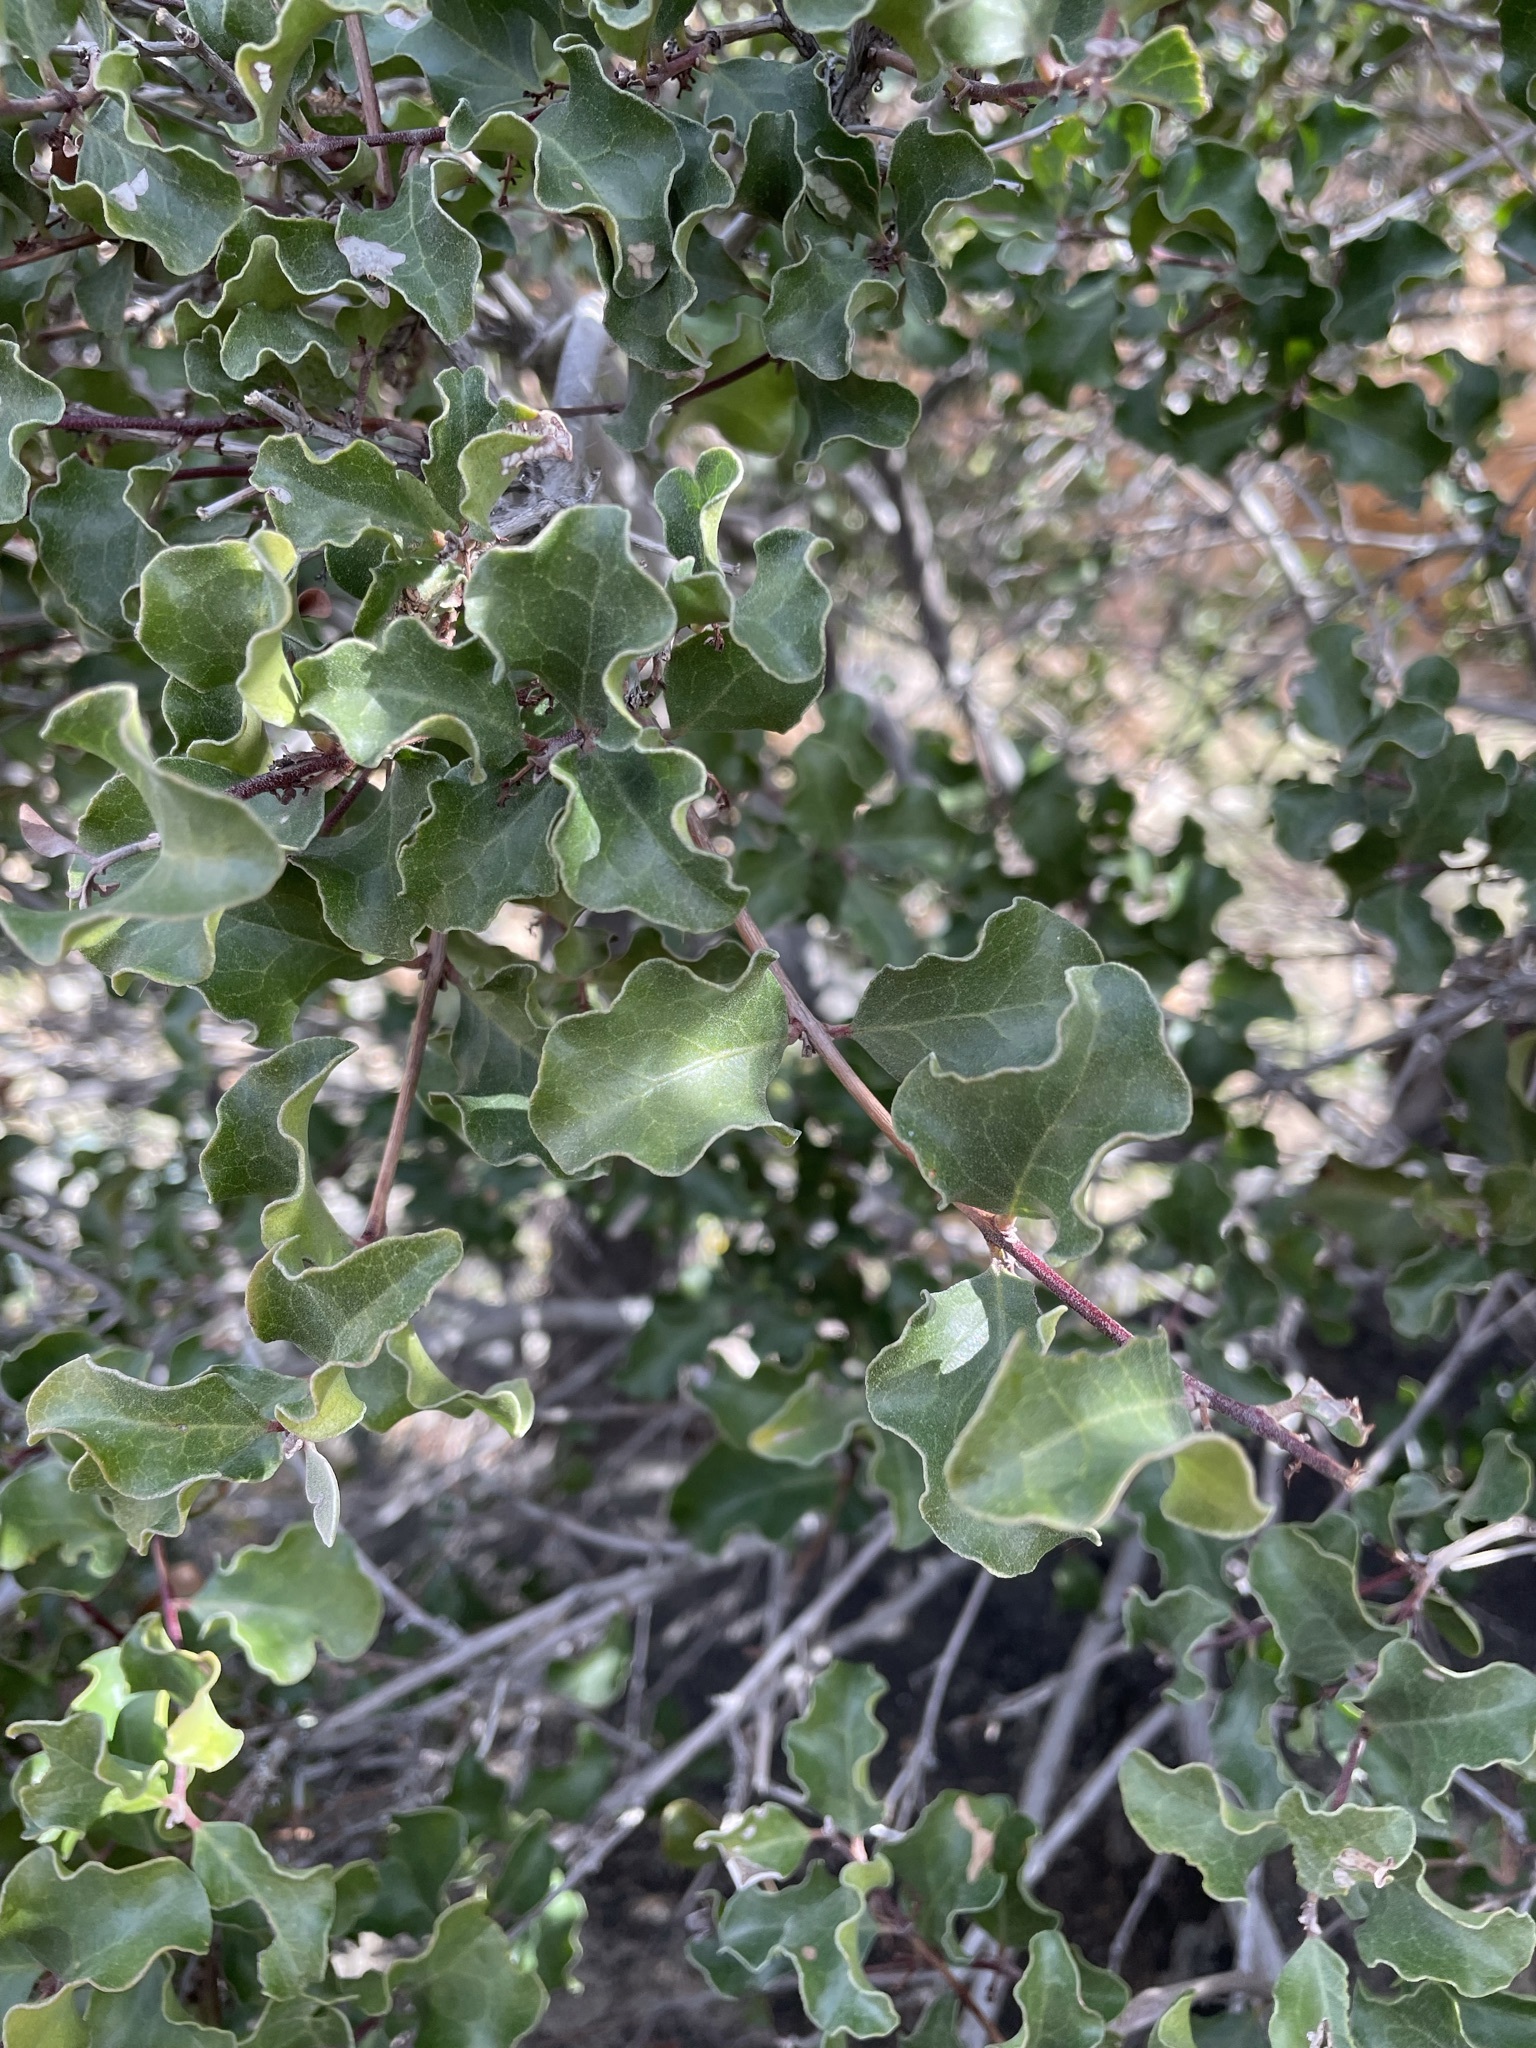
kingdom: Plantae
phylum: Tracheophyta
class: Magnoliopsida
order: Ericales
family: Ebenaceae
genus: Euclea
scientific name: Euclea undulata
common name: Small-leaved guarri
